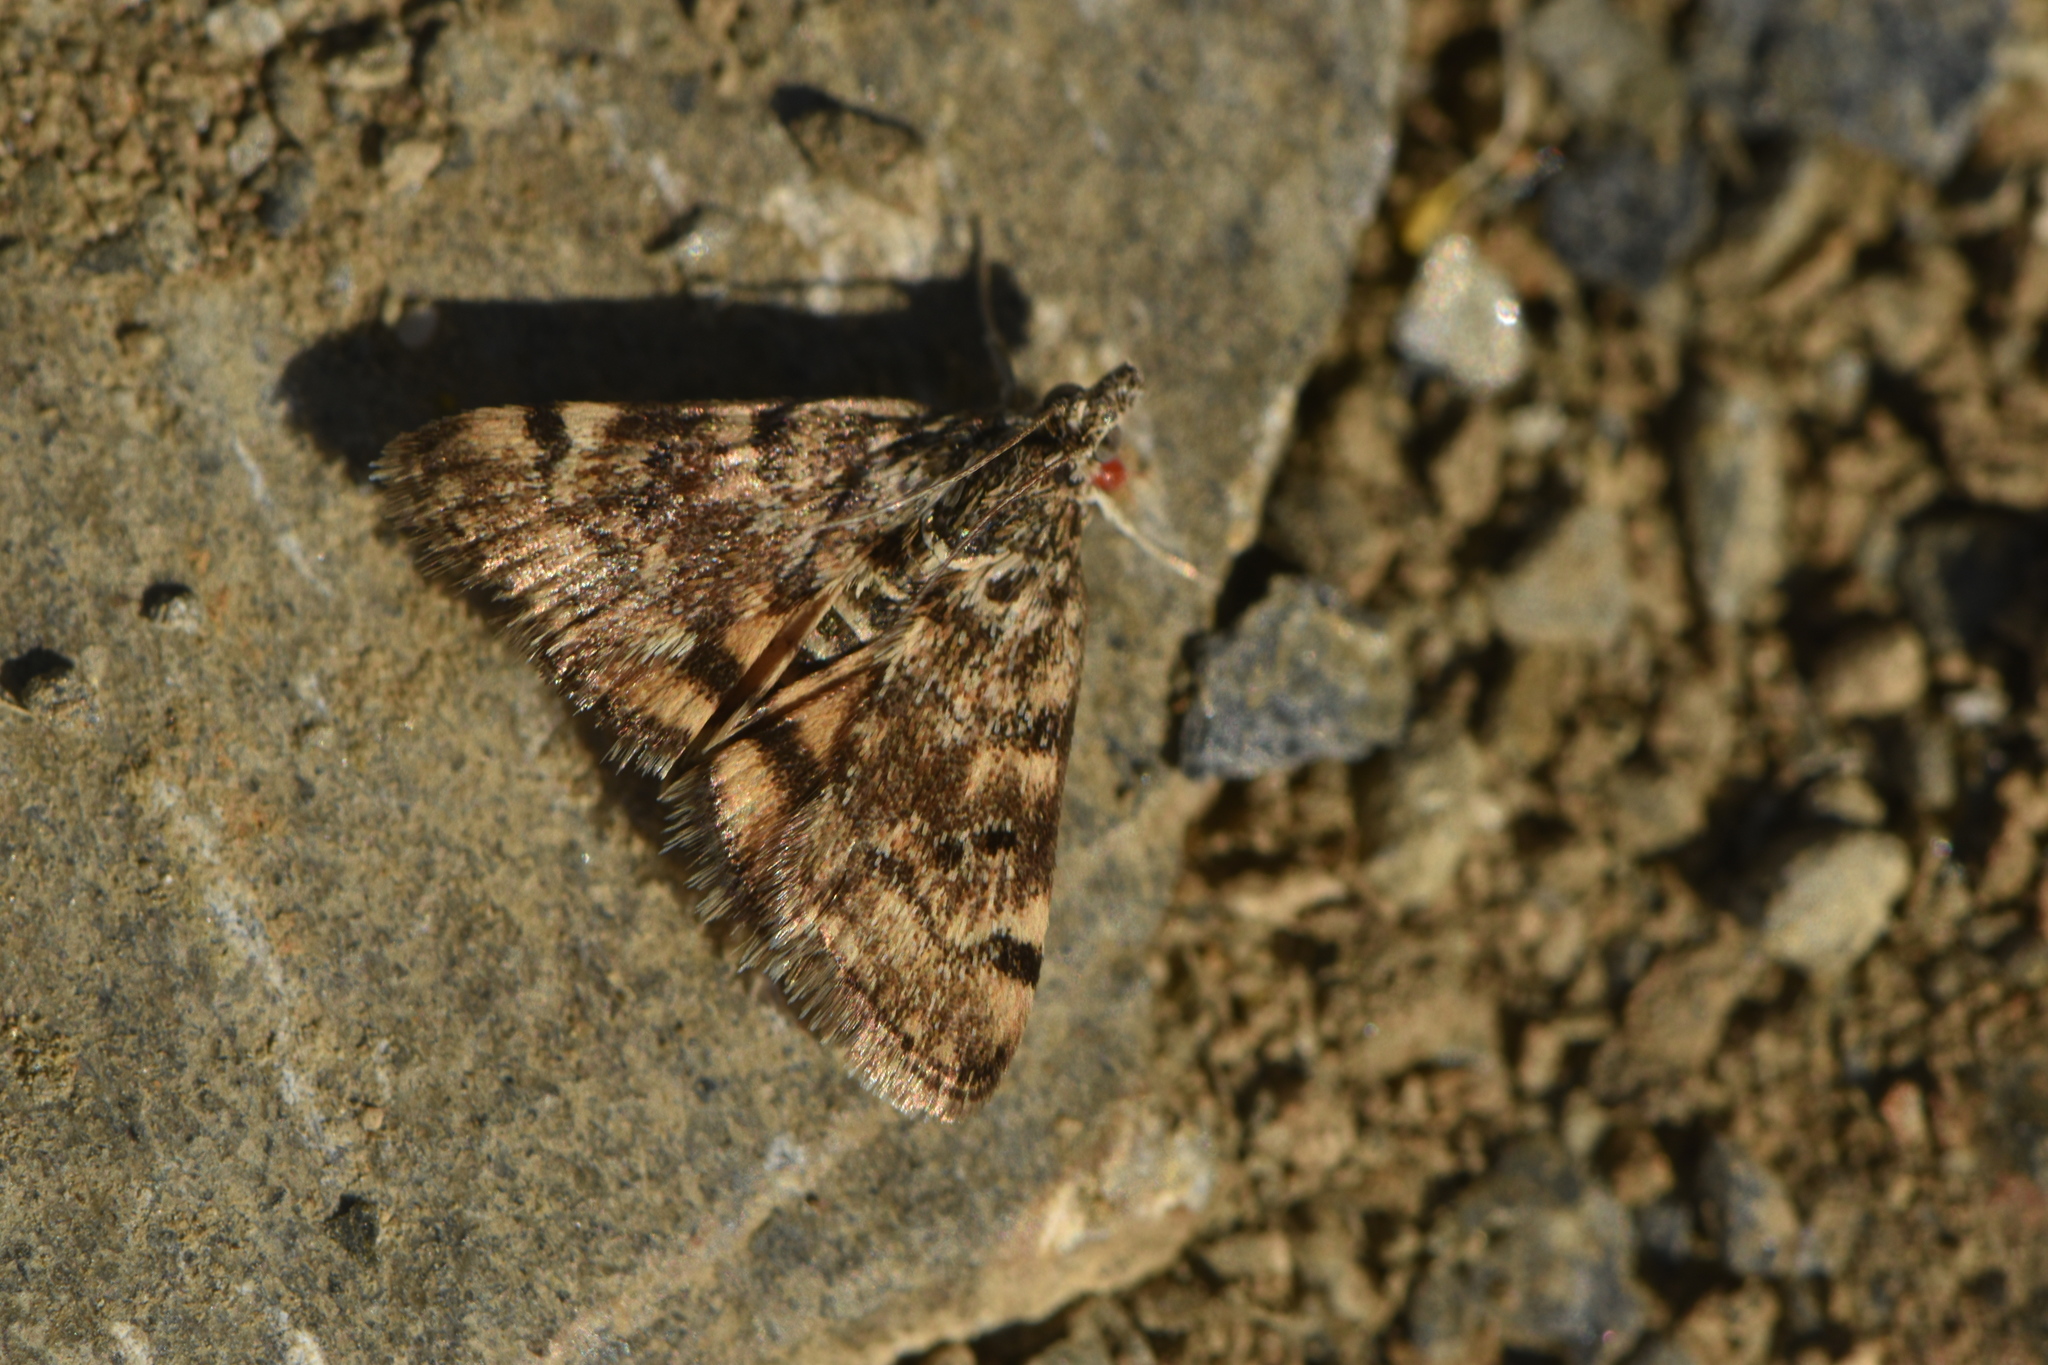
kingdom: Animalia
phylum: Arthropoda
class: Insecta
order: Lepidoptera
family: Crambidae
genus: Noctuelia
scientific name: Noctuelia Aporodes floralis
